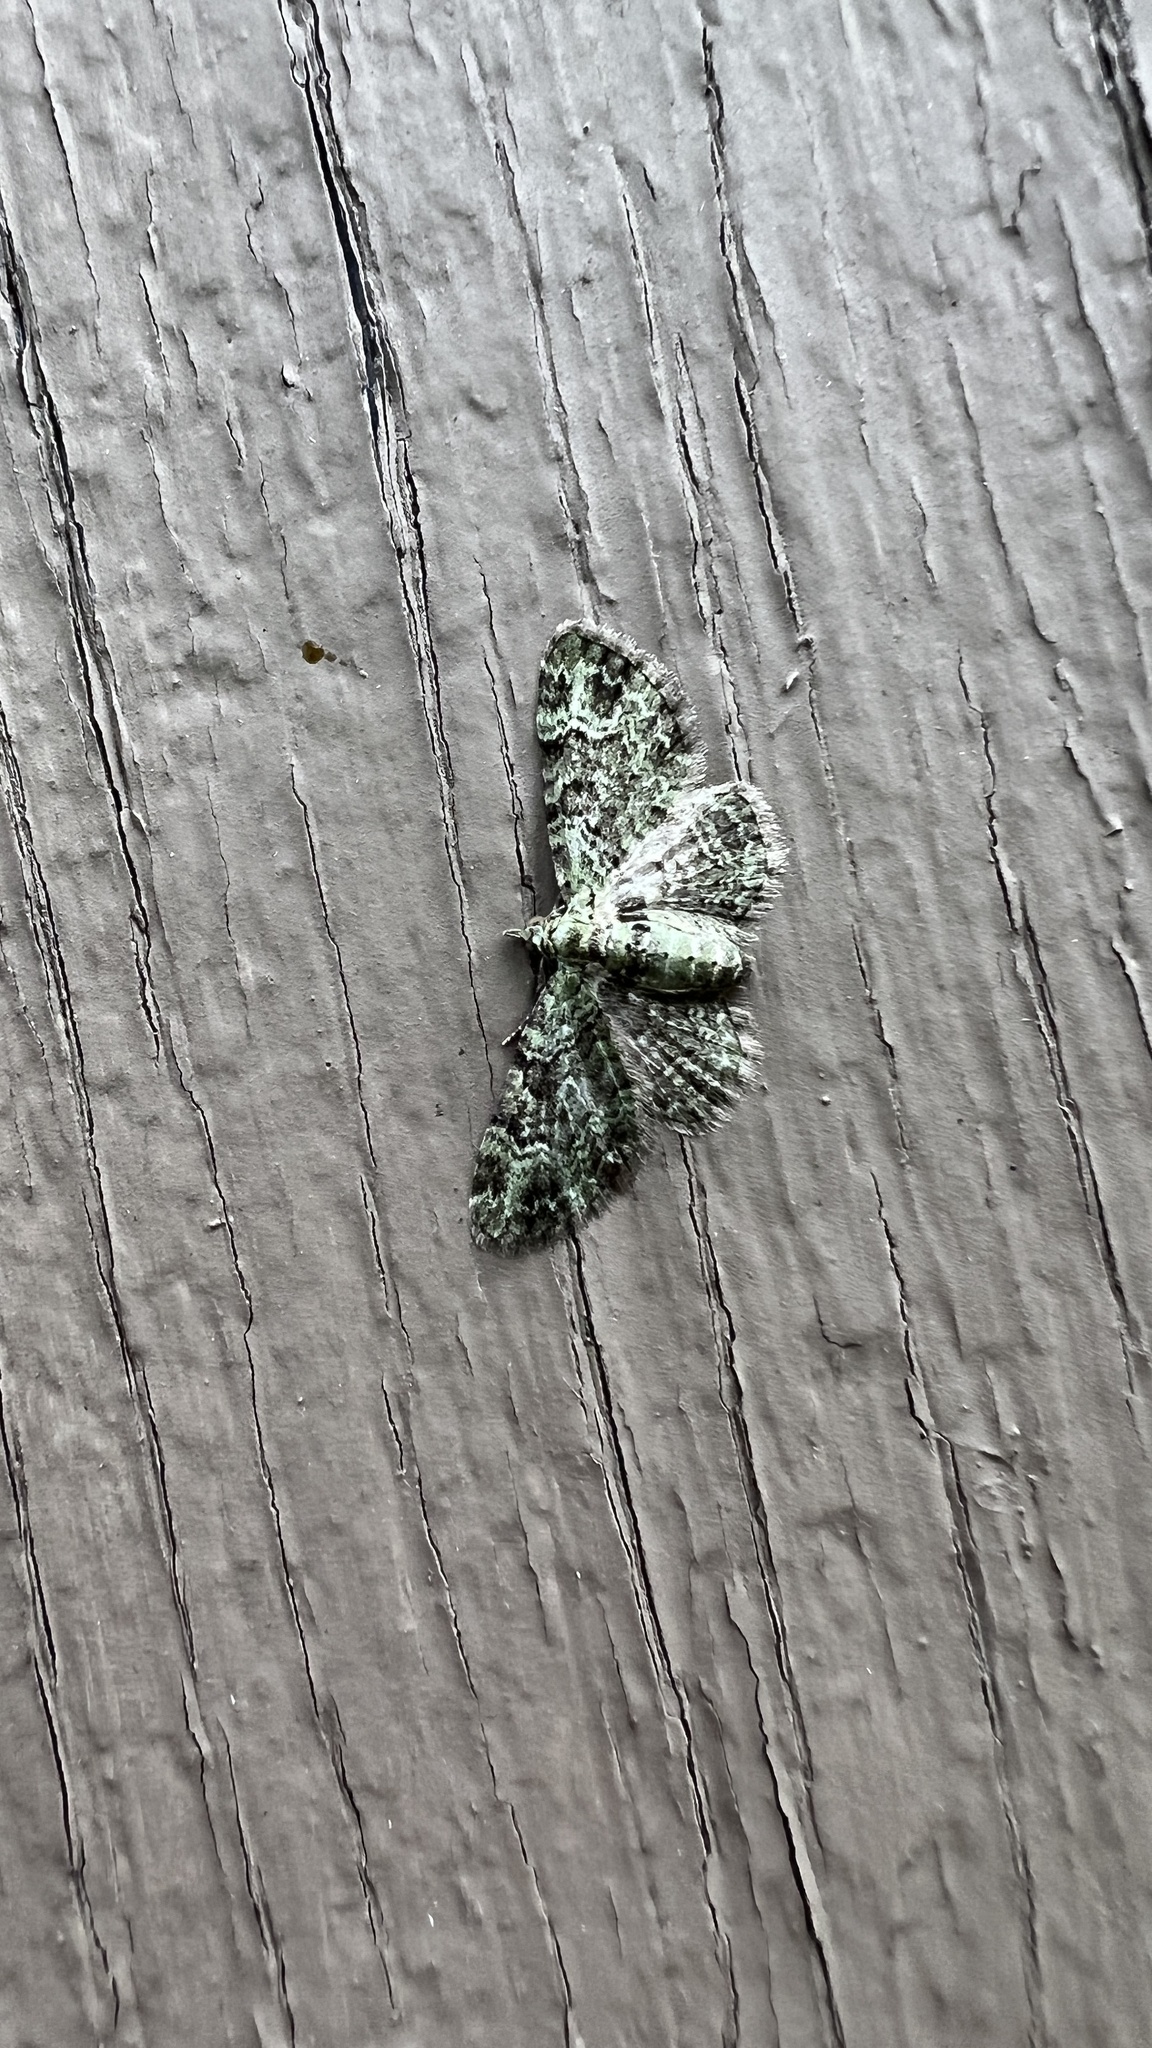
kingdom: Animalia
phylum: Arthropoda
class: Insecta
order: Lepidoptera
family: Geometridae
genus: Pasiphila
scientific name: Pasiphila rectangulata
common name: Green pug
